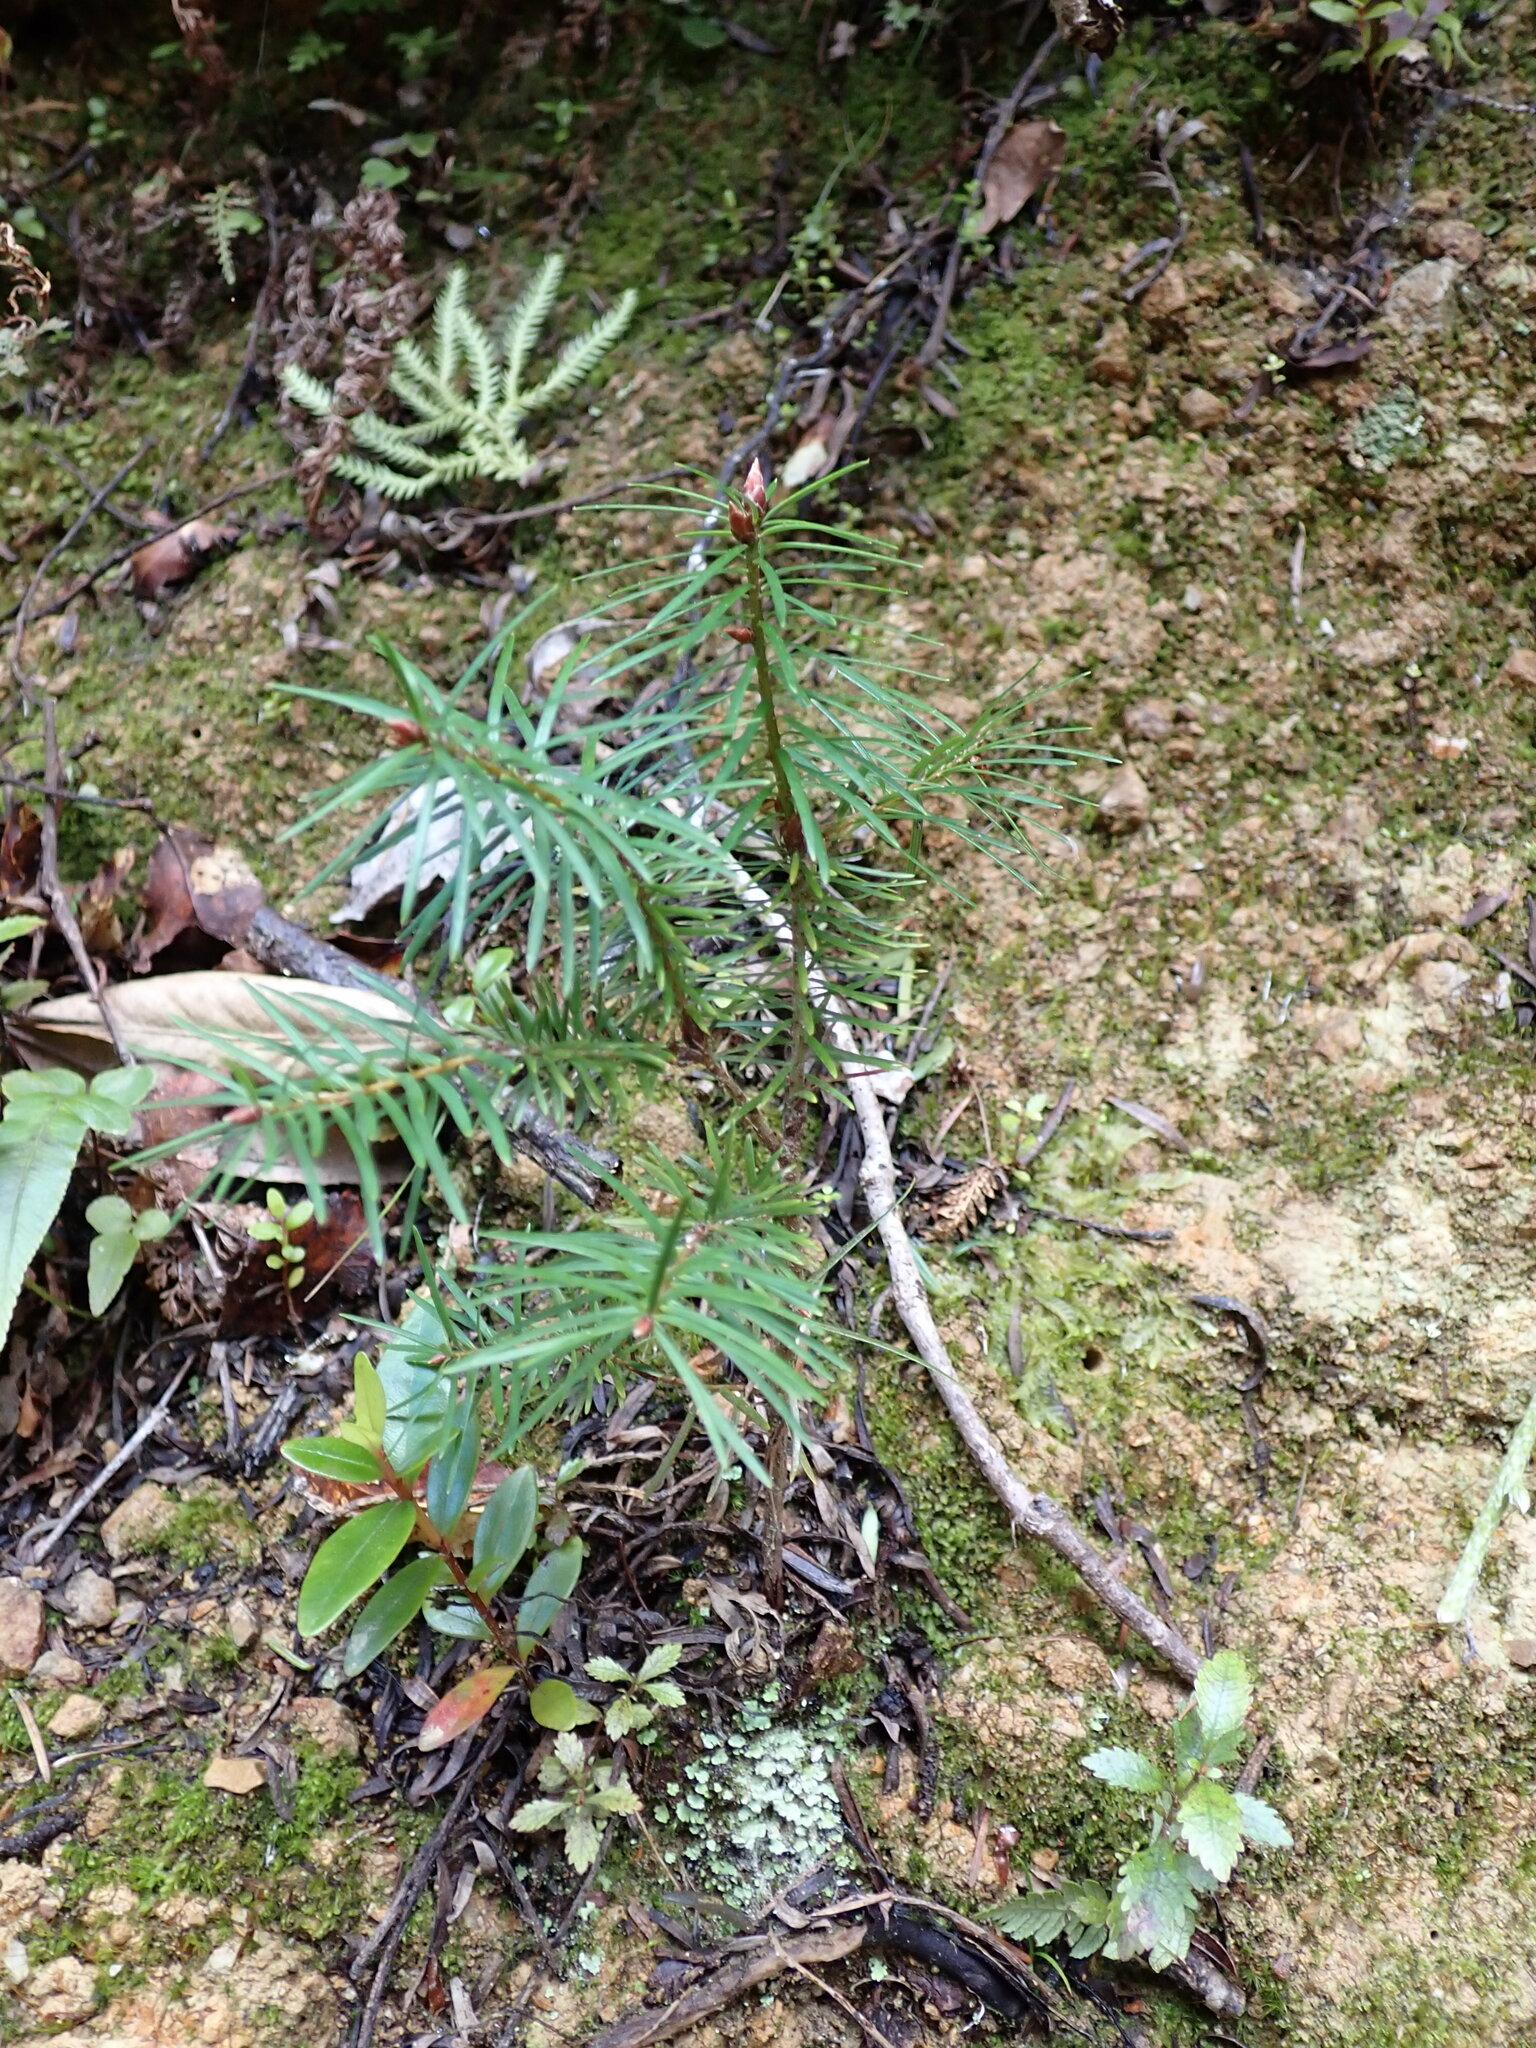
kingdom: Plantae
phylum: Tracheophyta
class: Pinopsida
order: Pinales
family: Pinaceae
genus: Pseudotsuga
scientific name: Pseudotsuga menziesii
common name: Douglas fir
